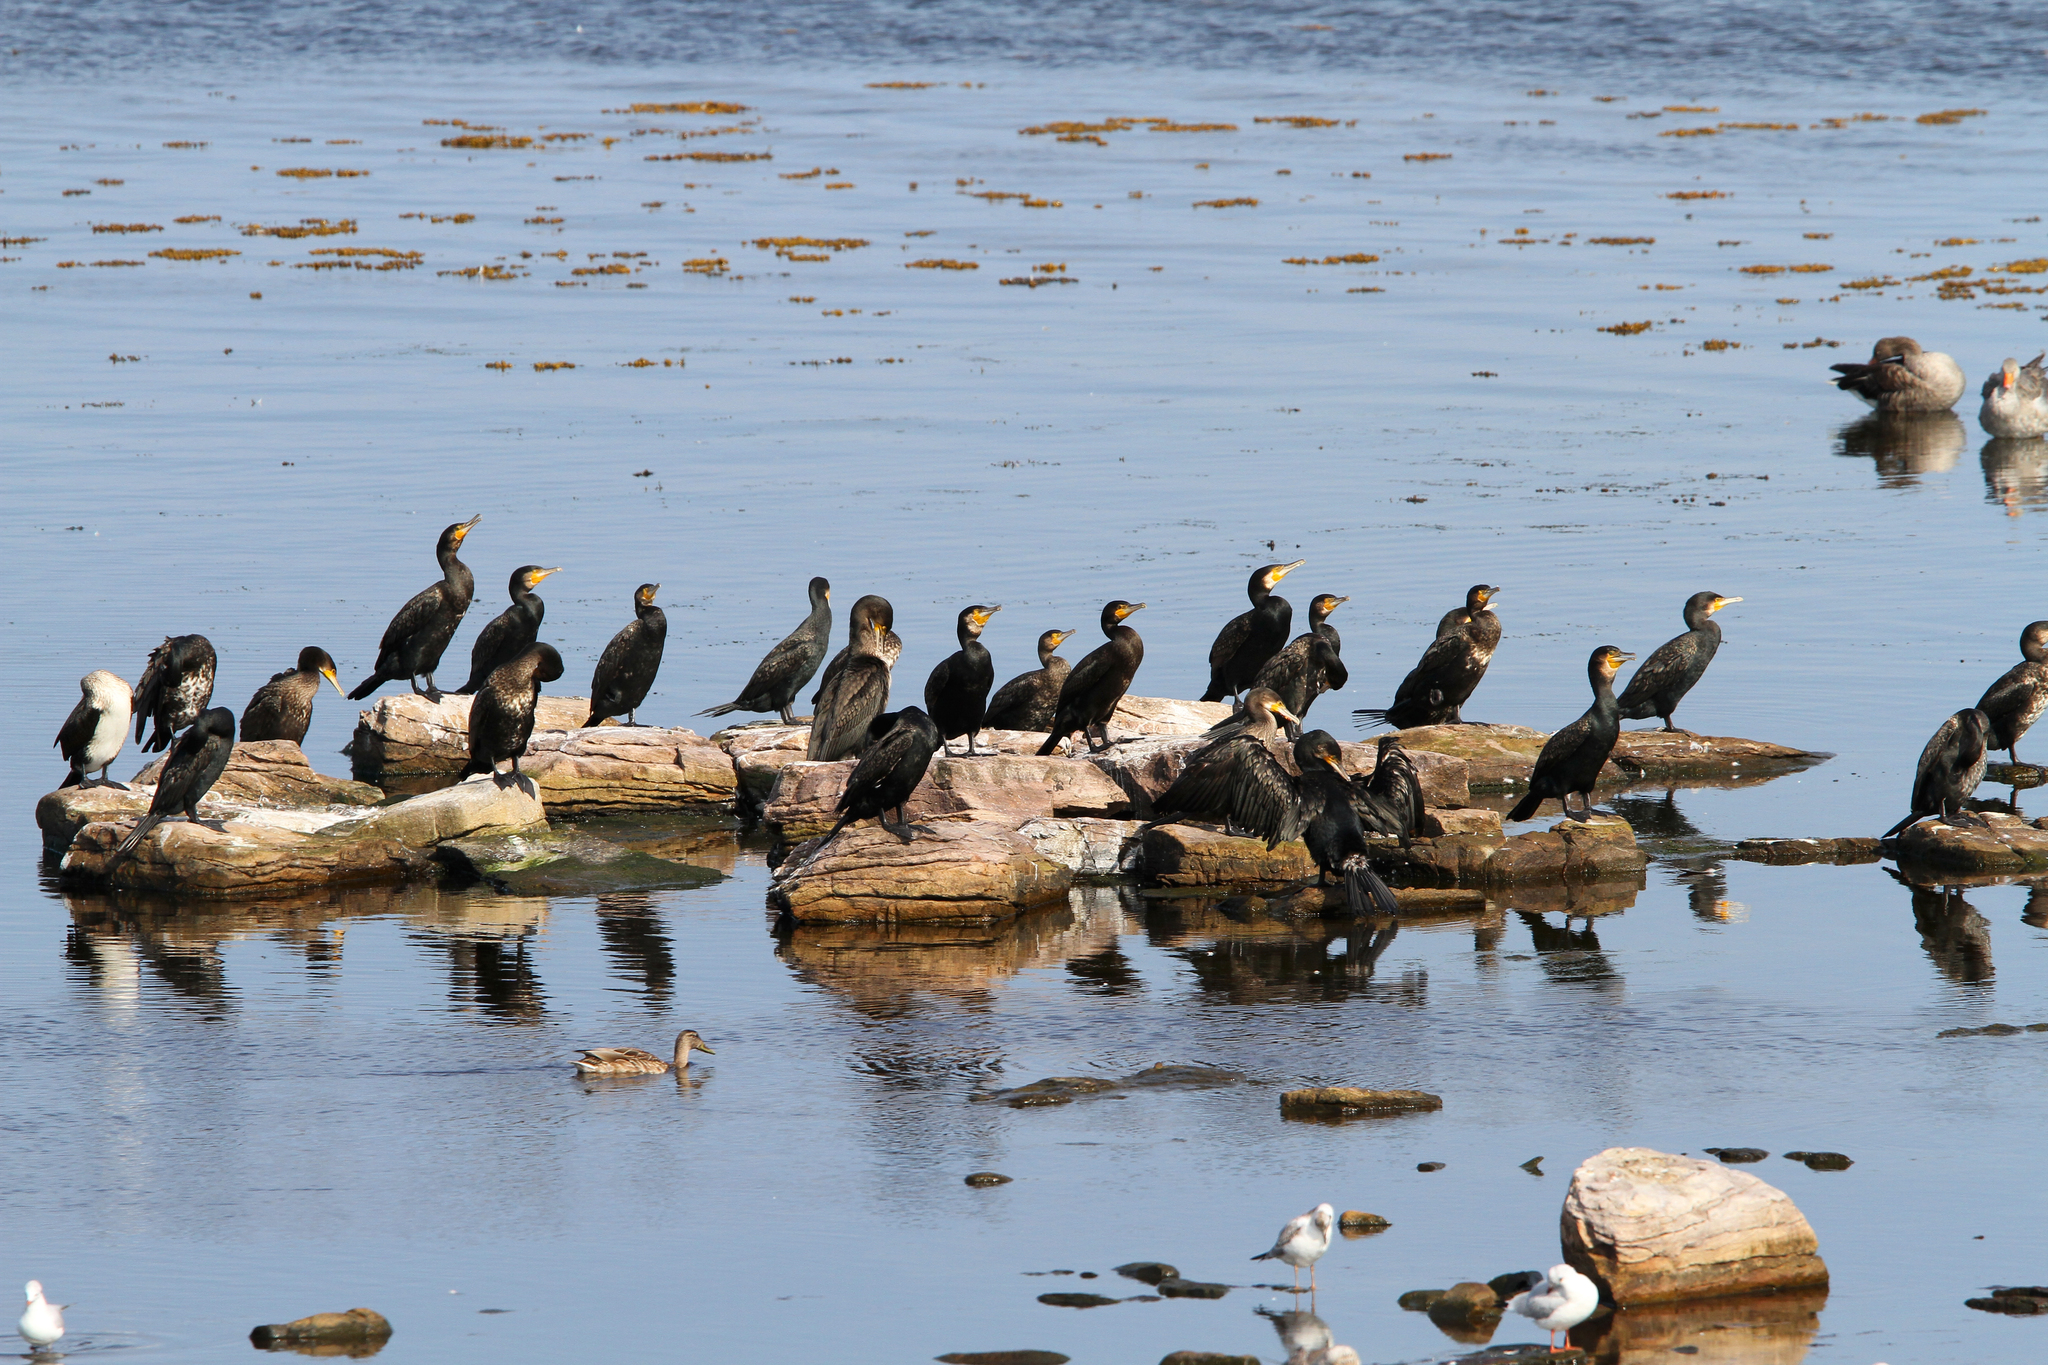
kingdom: Animalia
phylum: Chordata
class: Aves
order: Suliformes
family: Phalacrocoracidae
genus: Phalacrocorax
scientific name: Phalacrocorax carbo
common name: Great cormorant
